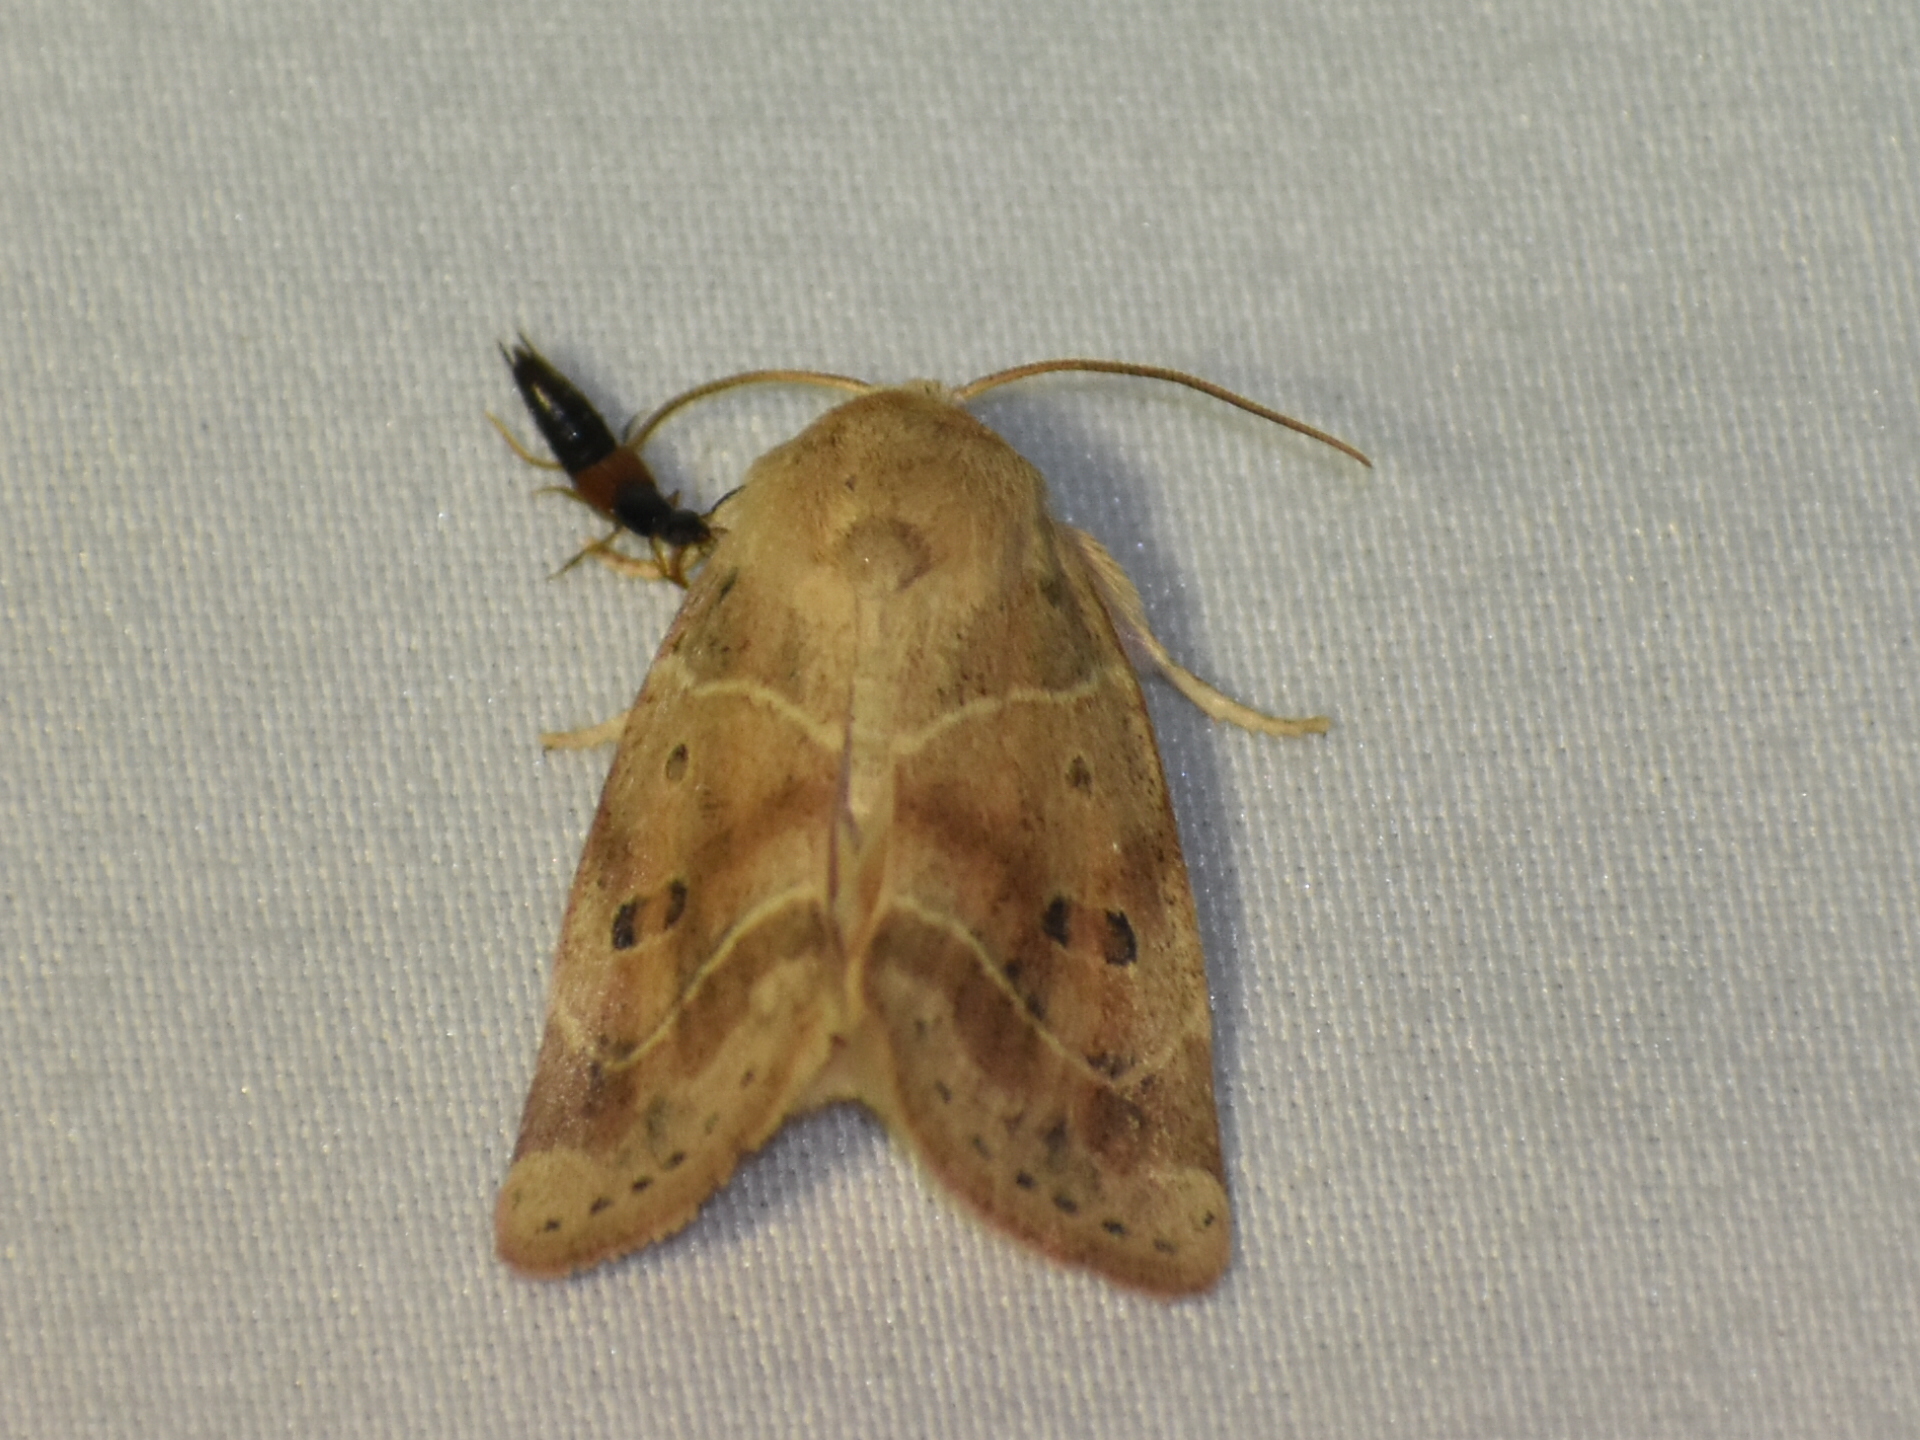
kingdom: Animalia
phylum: Arthropoda
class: Insecta
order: Lepidoptera
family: Noctuidae
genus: Cosmia
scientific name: Cosmia calami
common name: American dun-bar moth
